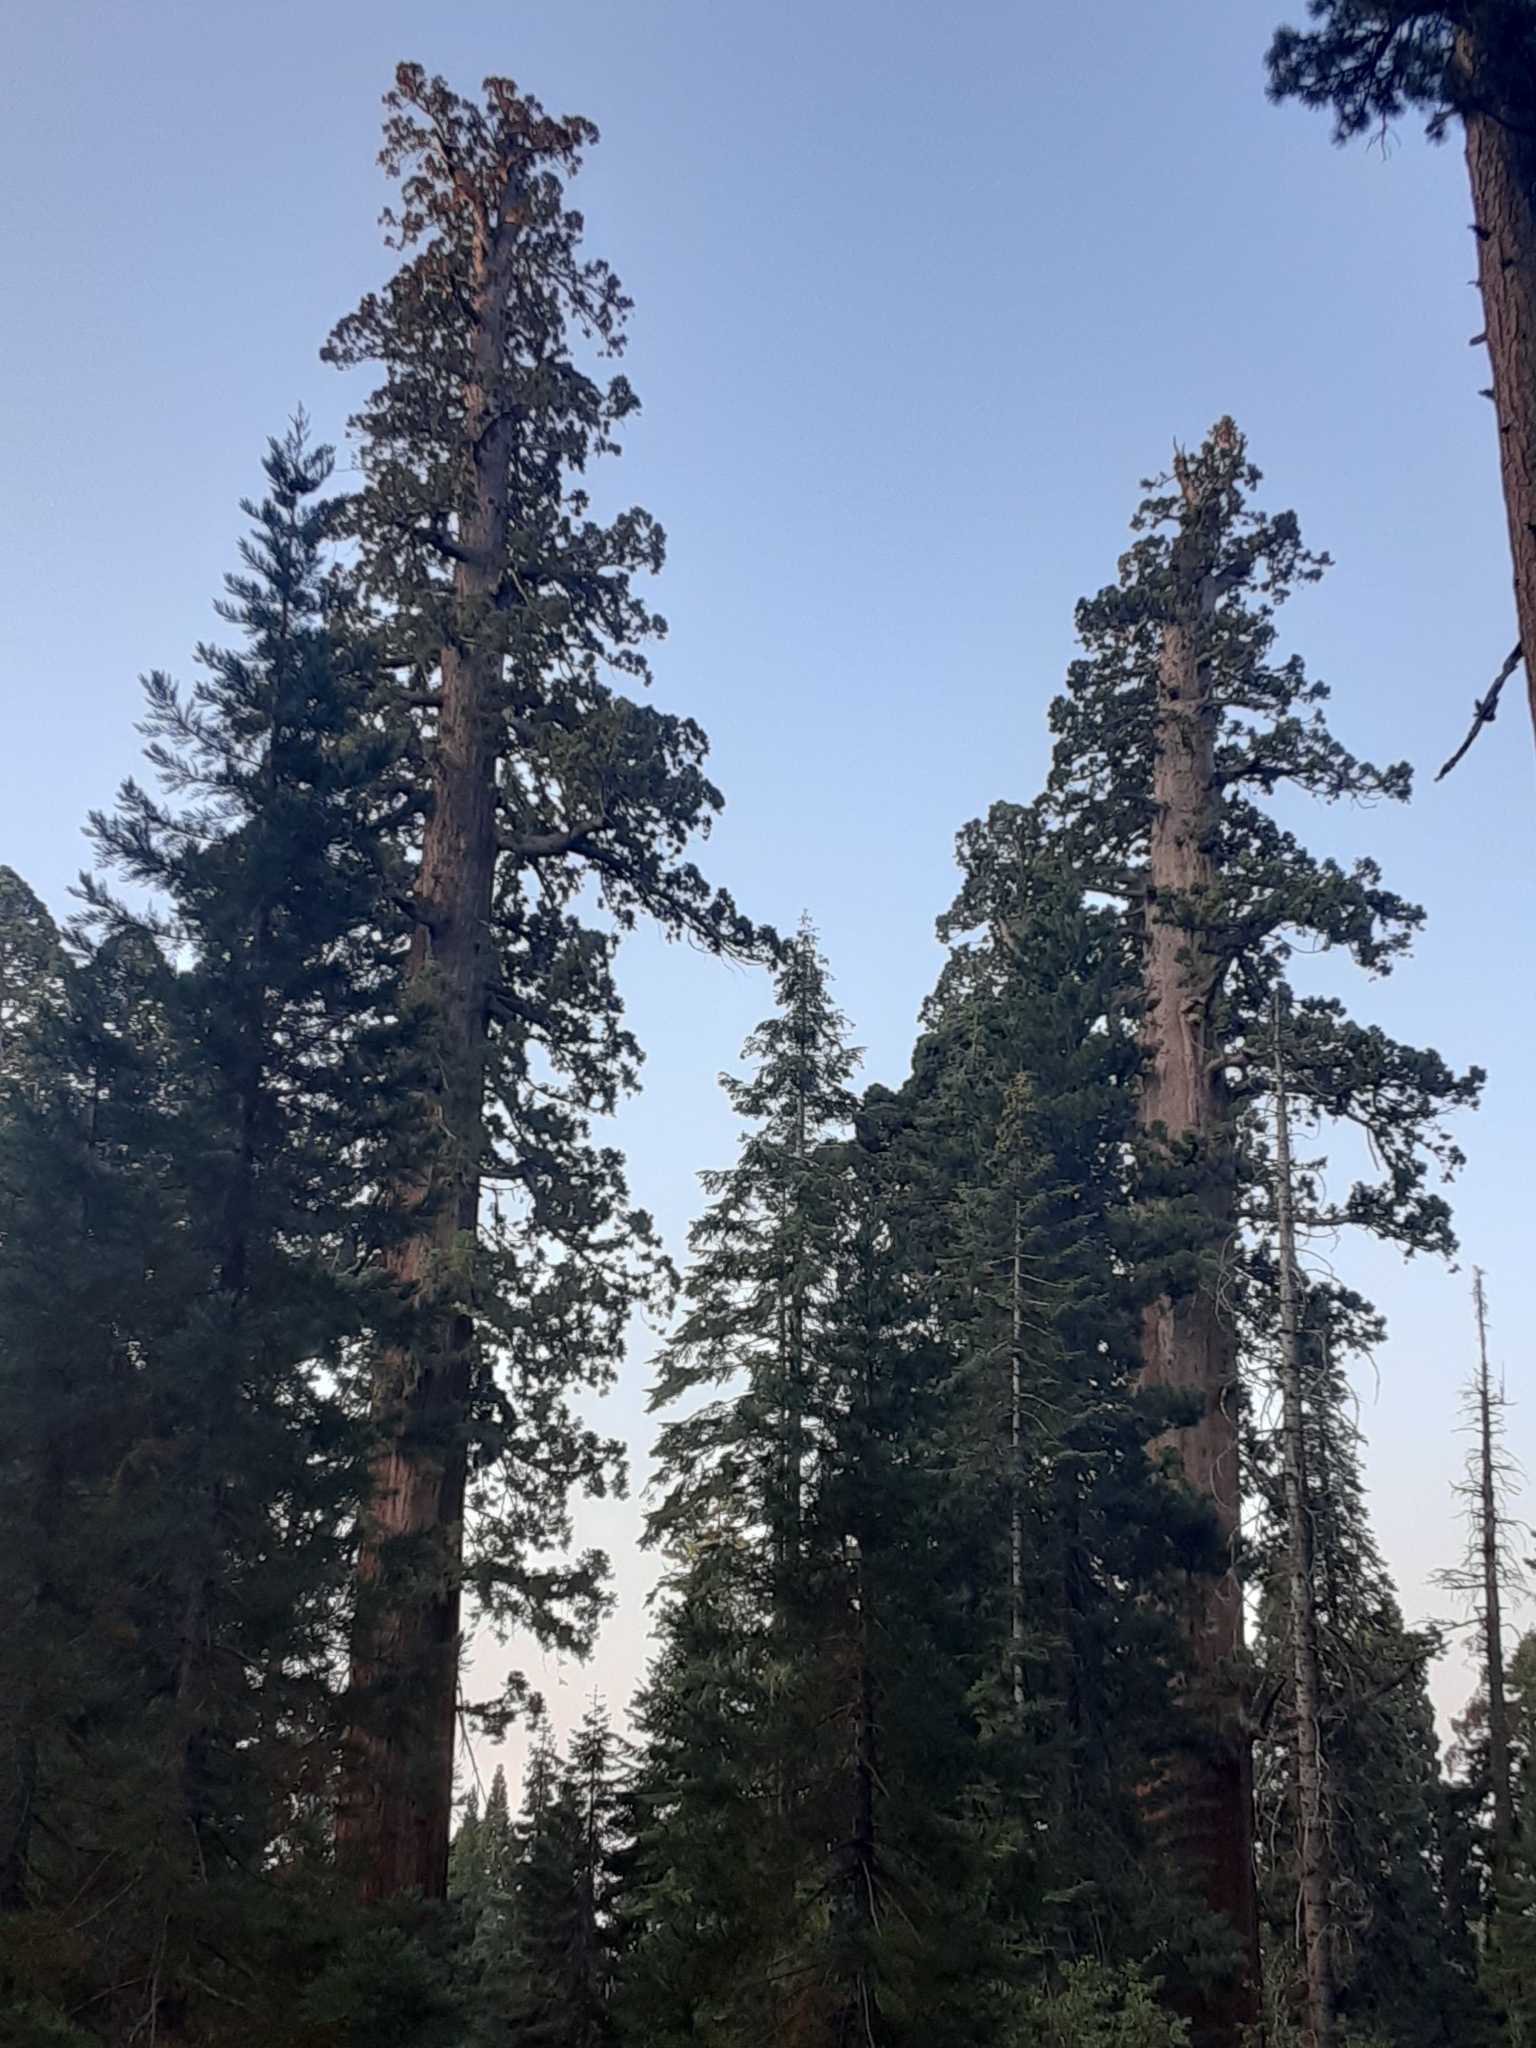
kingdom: Plantae
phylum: Tracheophyta
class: Pinopsida
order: Pinales
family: Cupressaceae
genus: Sequoiadendron
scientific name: Sequoiadendron giganteum
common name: Wellingtonia
